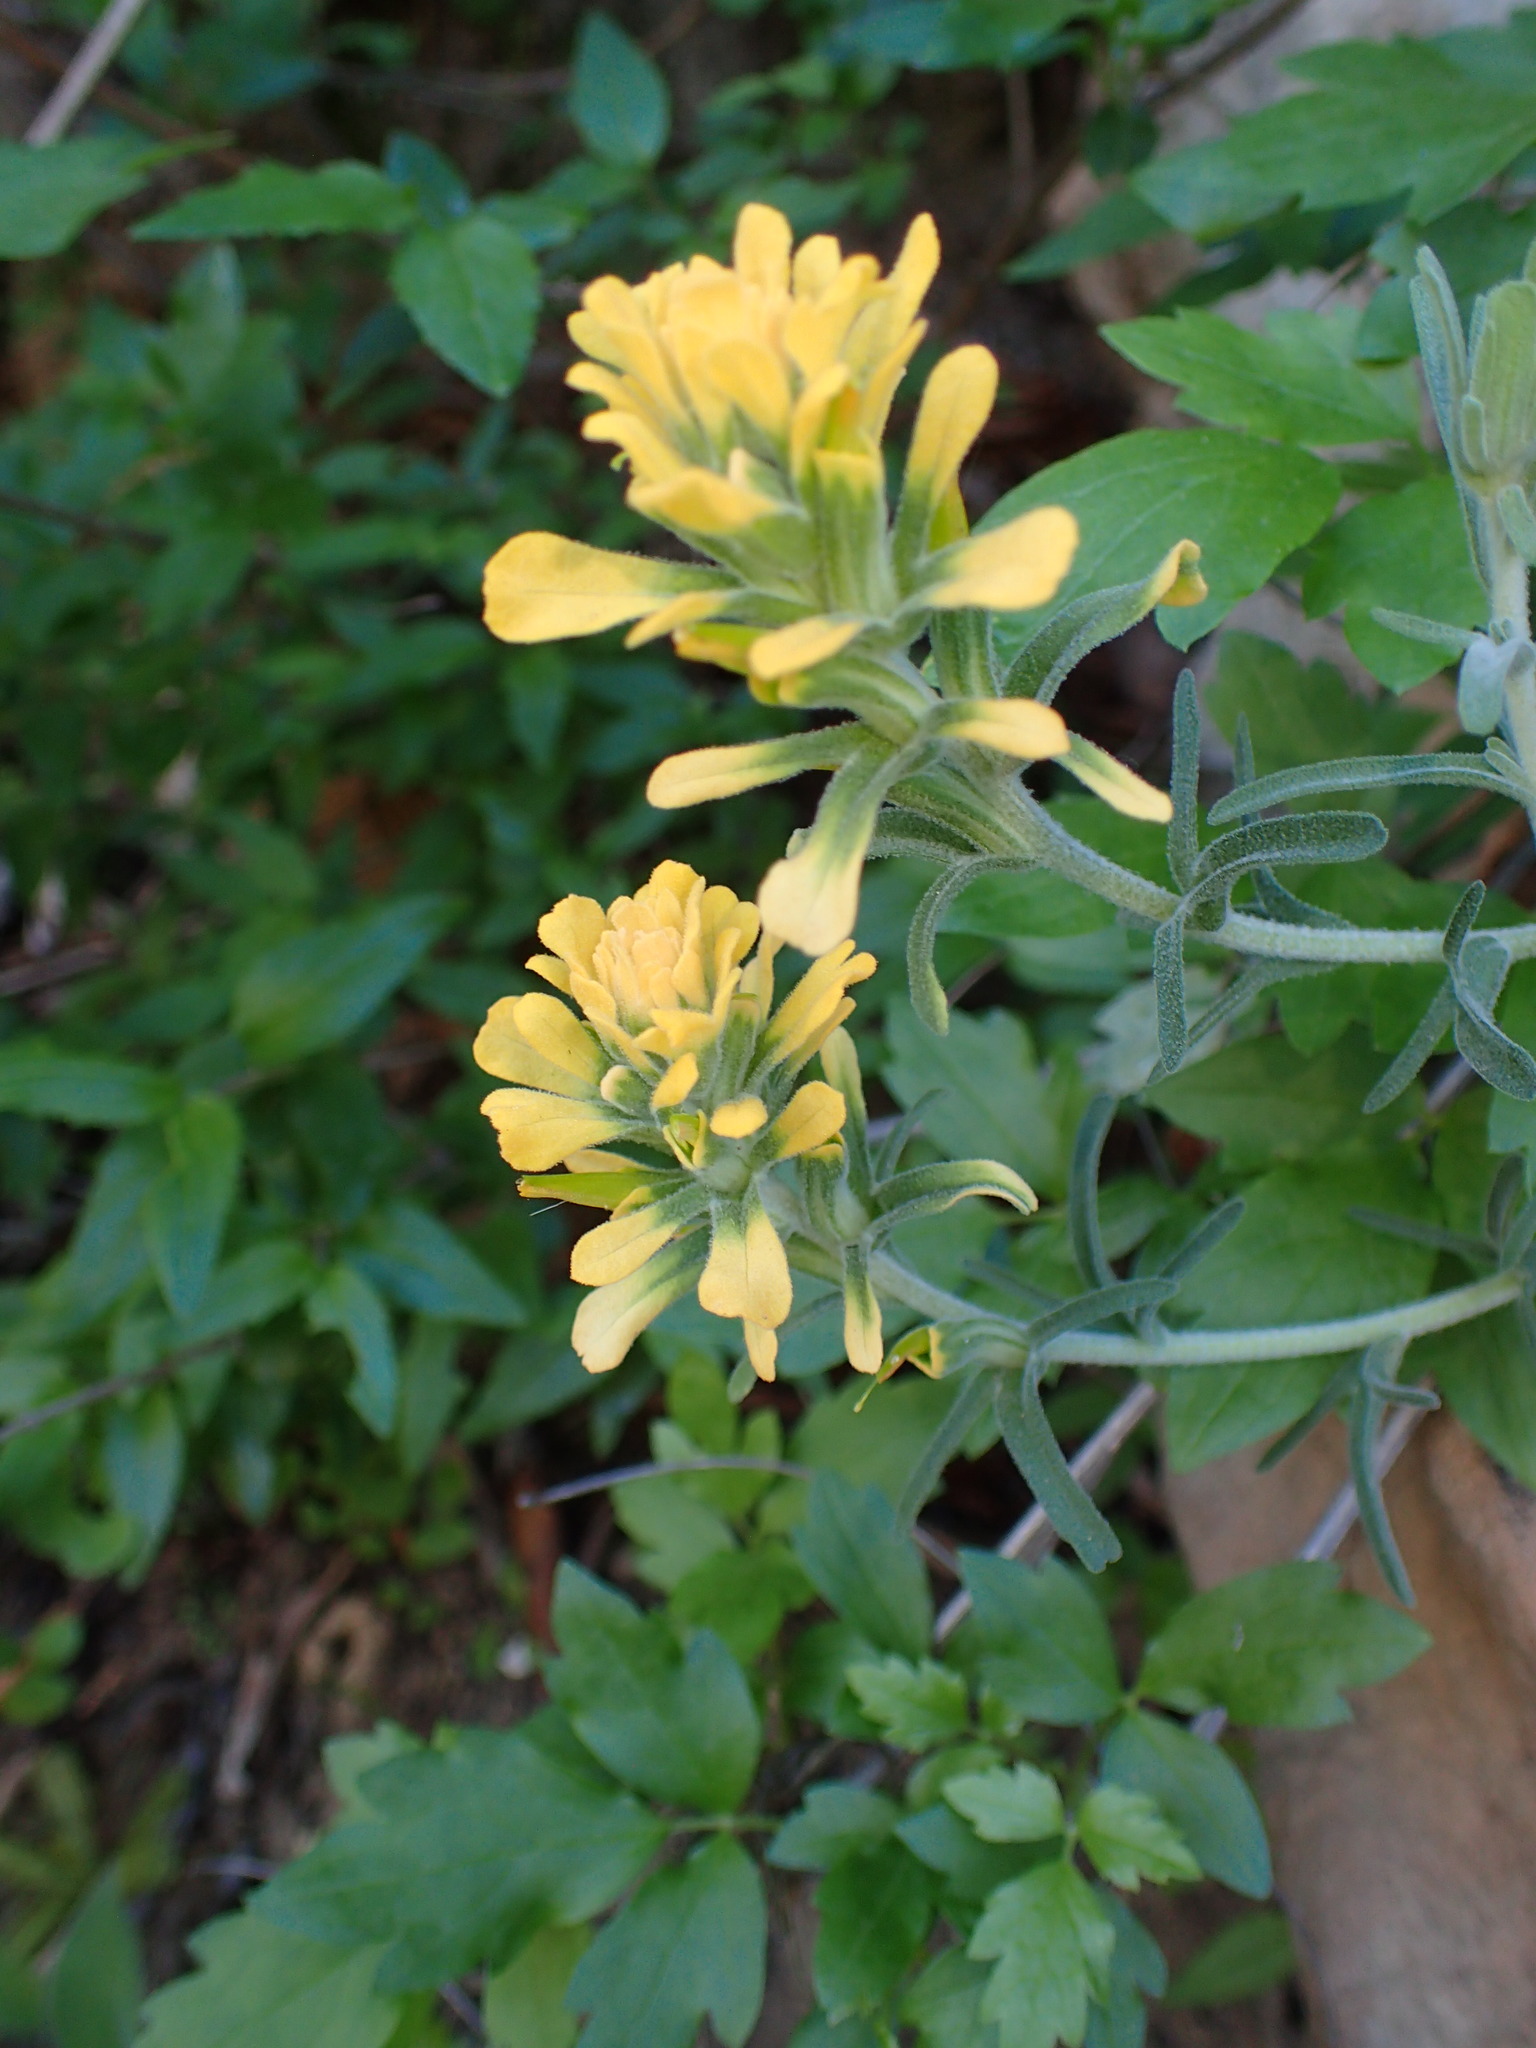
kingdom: Plantae
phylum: Tracheophyta
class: Magnoliopsida
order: Lamiales
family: Orobanchaceae
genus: Castilleja
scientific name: Castilleja foliolosa
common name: Woolly indian paintbrush
